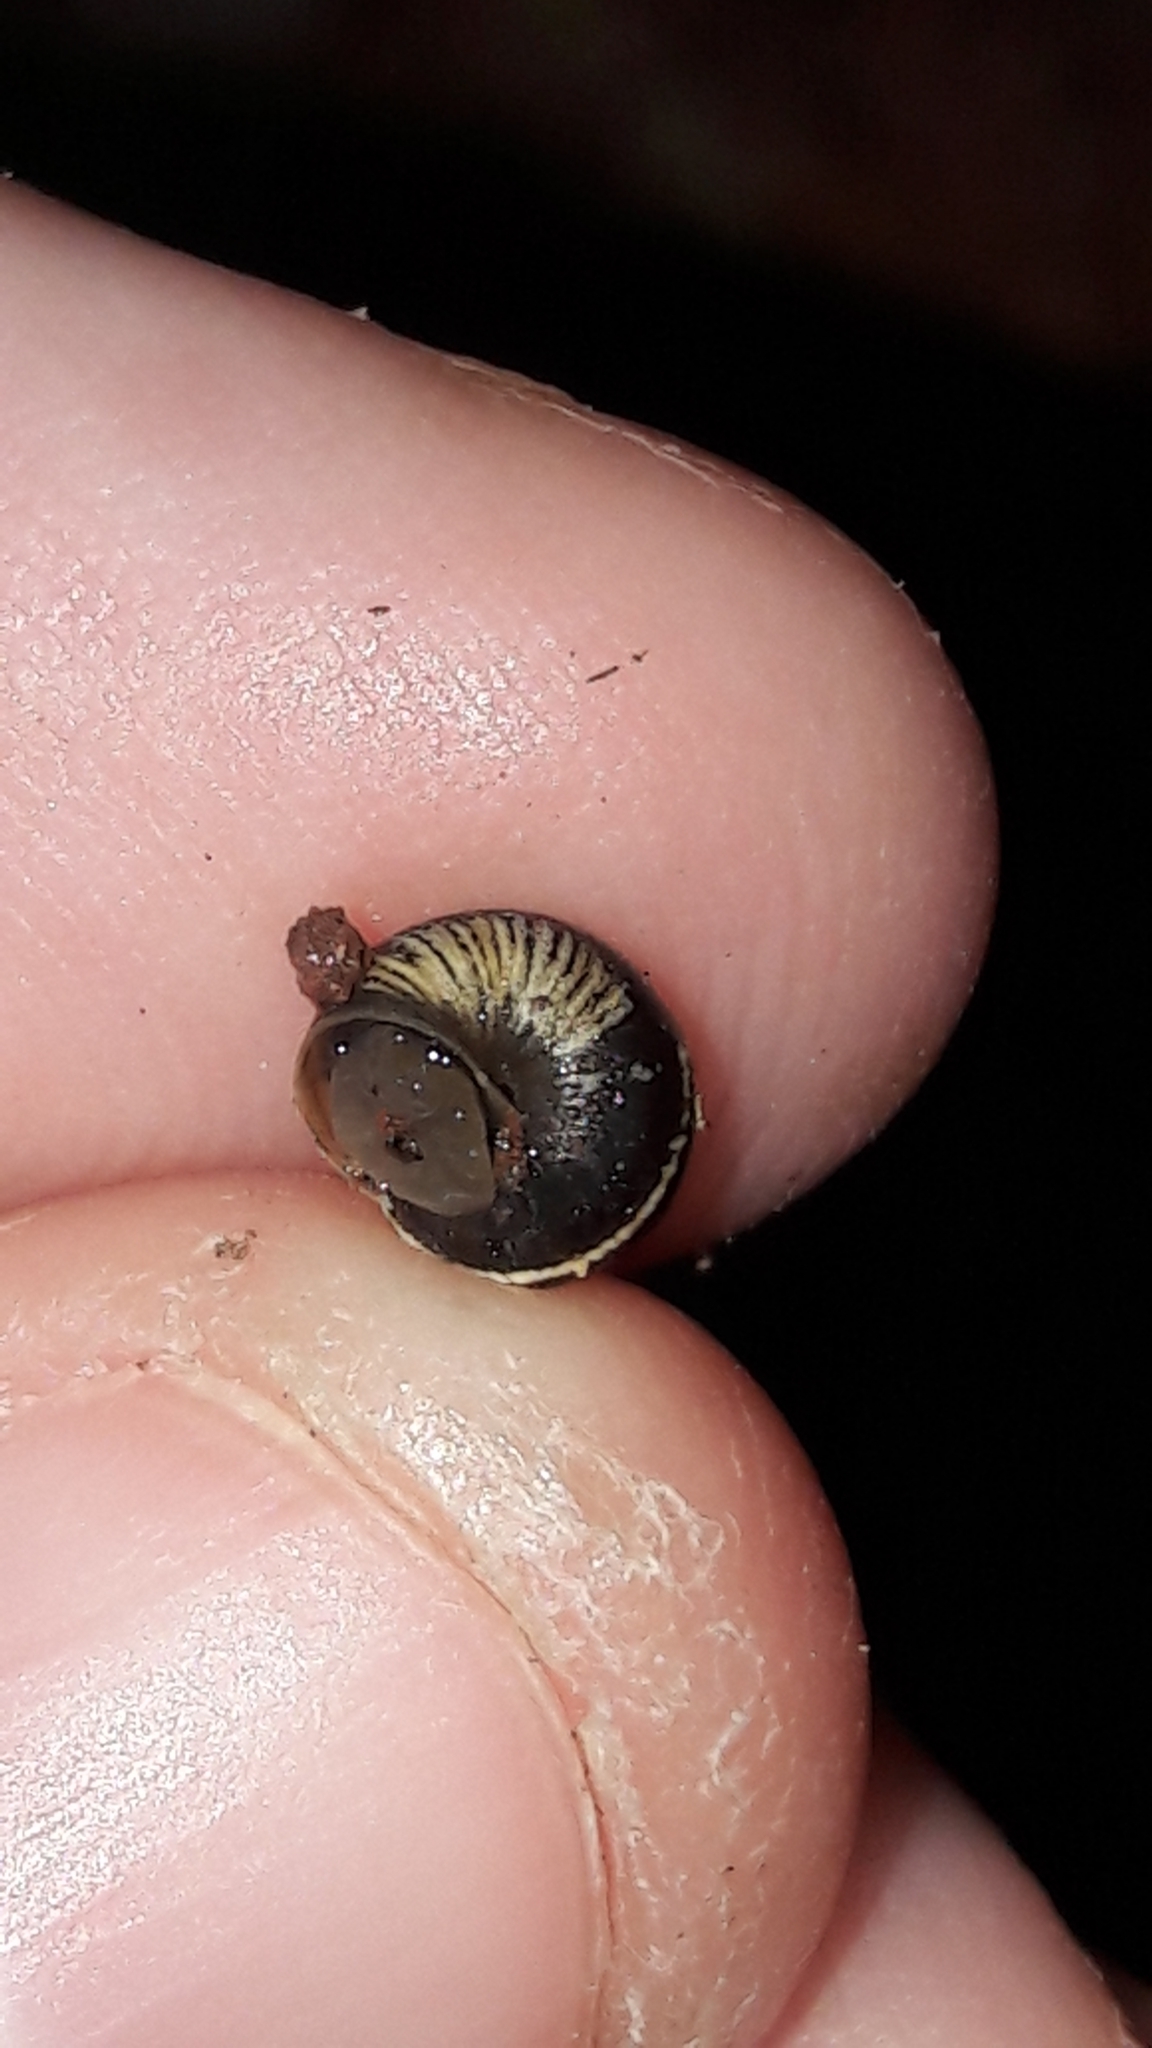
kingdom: Animalia
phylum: Mollusca
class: Gastropoda
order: Stylommatophora
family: Geomitridae
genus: Cochlicella
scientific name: Cochlicella barbara
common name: Potbellied helicellid
